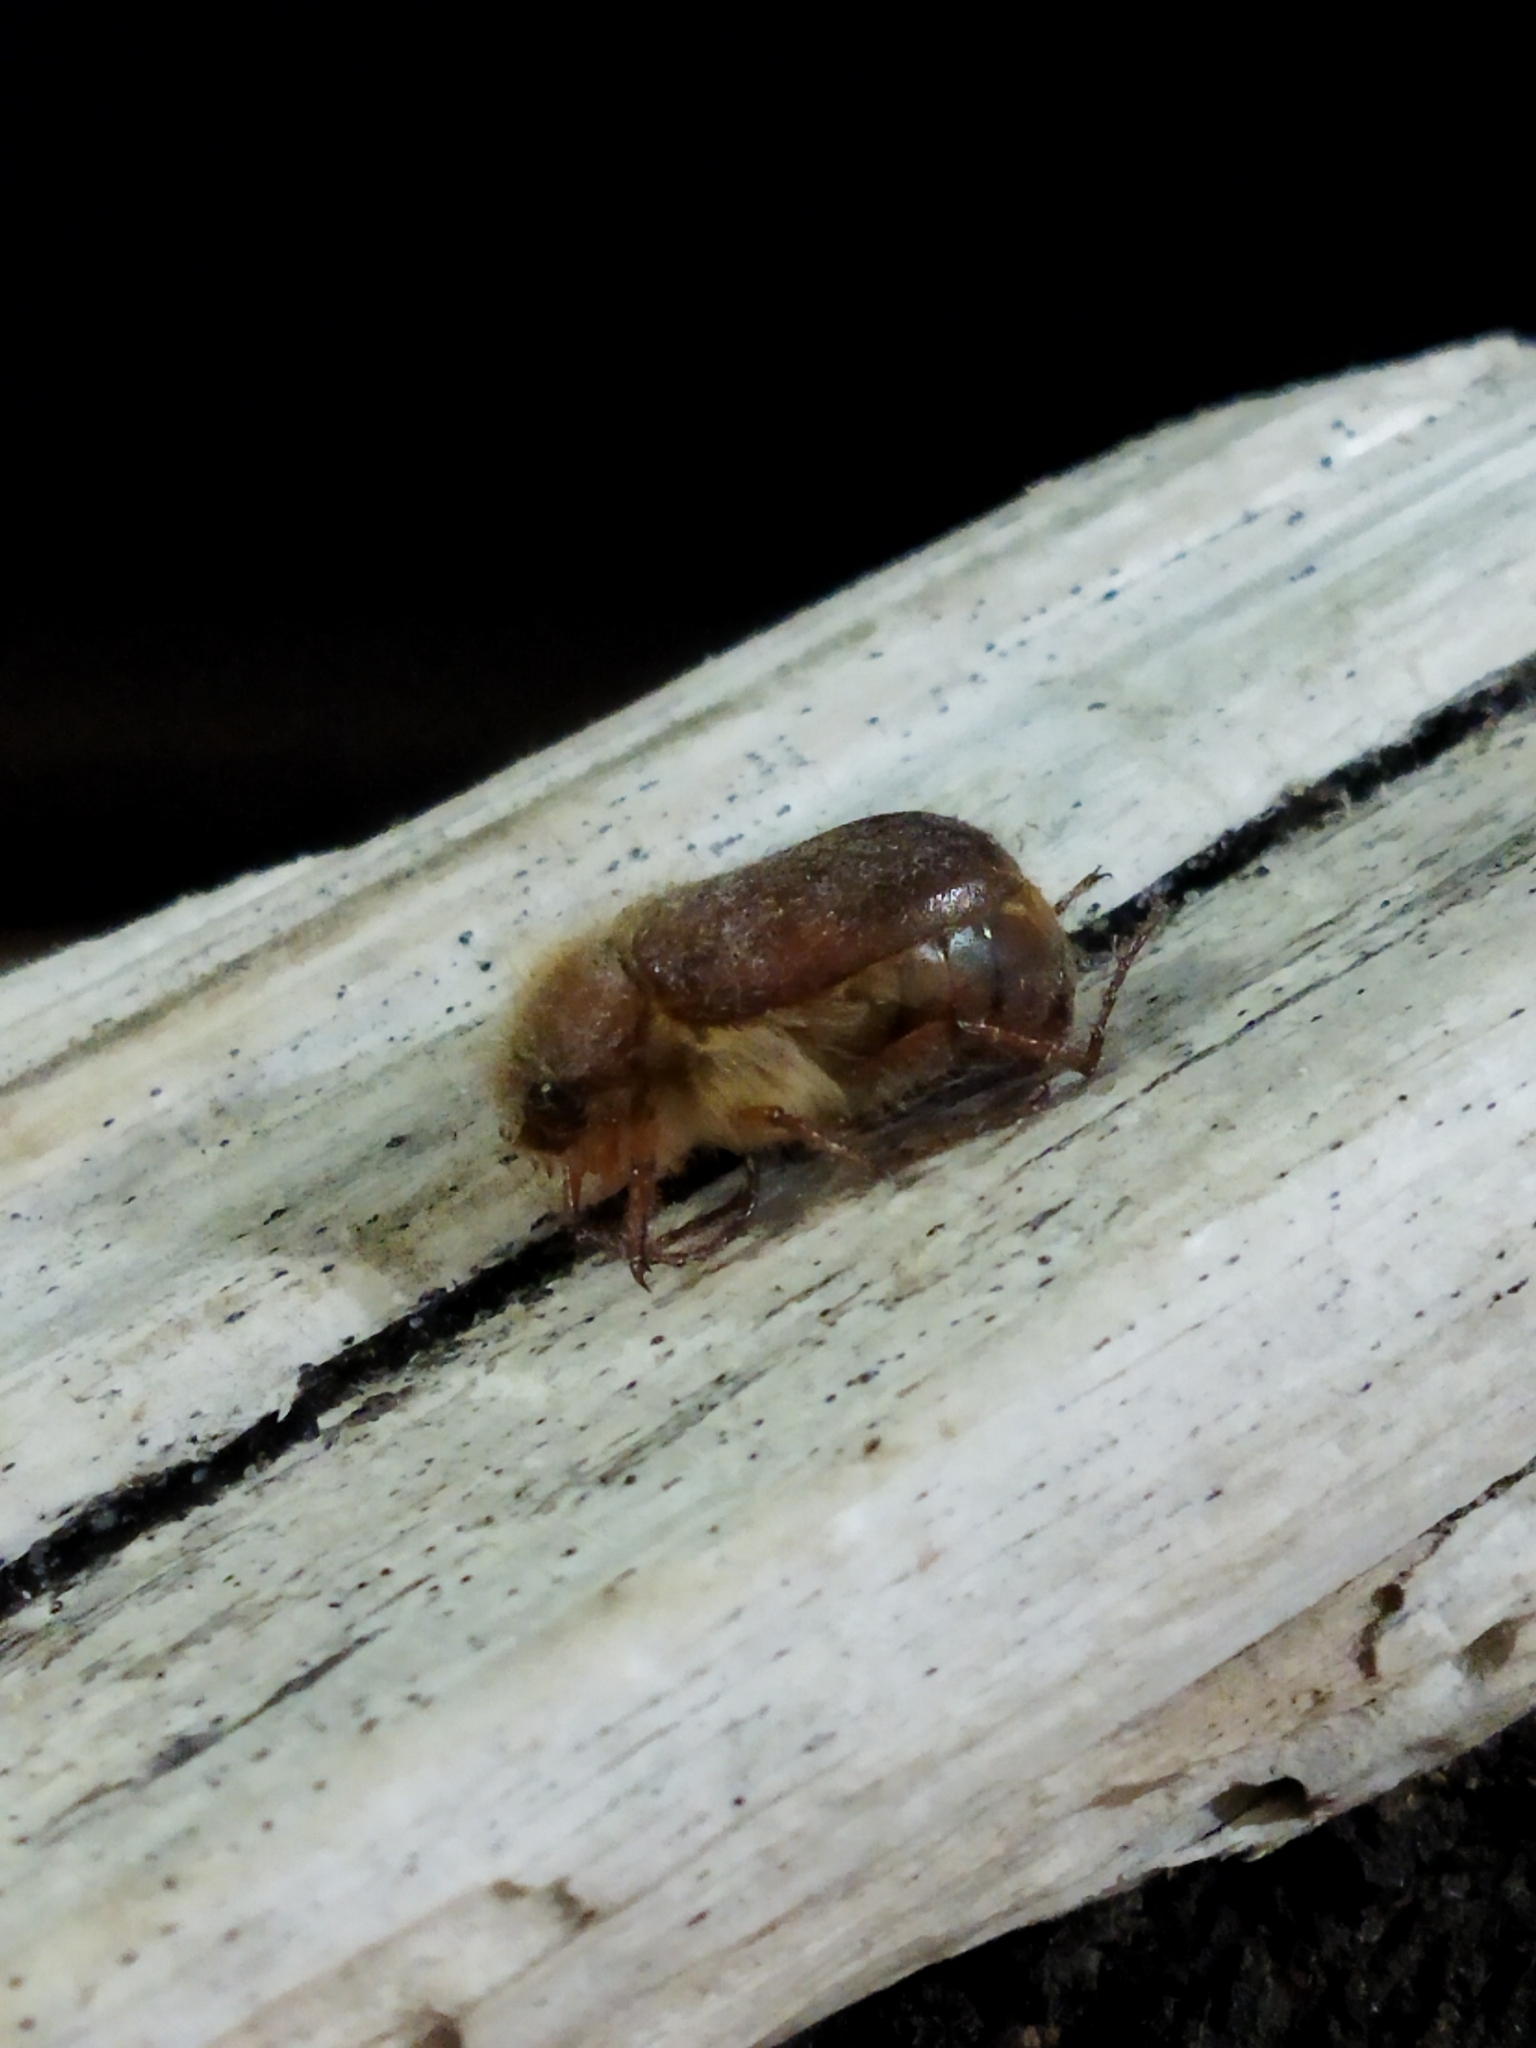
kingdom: Animalia
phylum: Arthropoda
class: Insecta
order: Coleoptera
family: Scarabaeidae
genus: Holochelus
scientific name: Holochelus aequinoctialis
